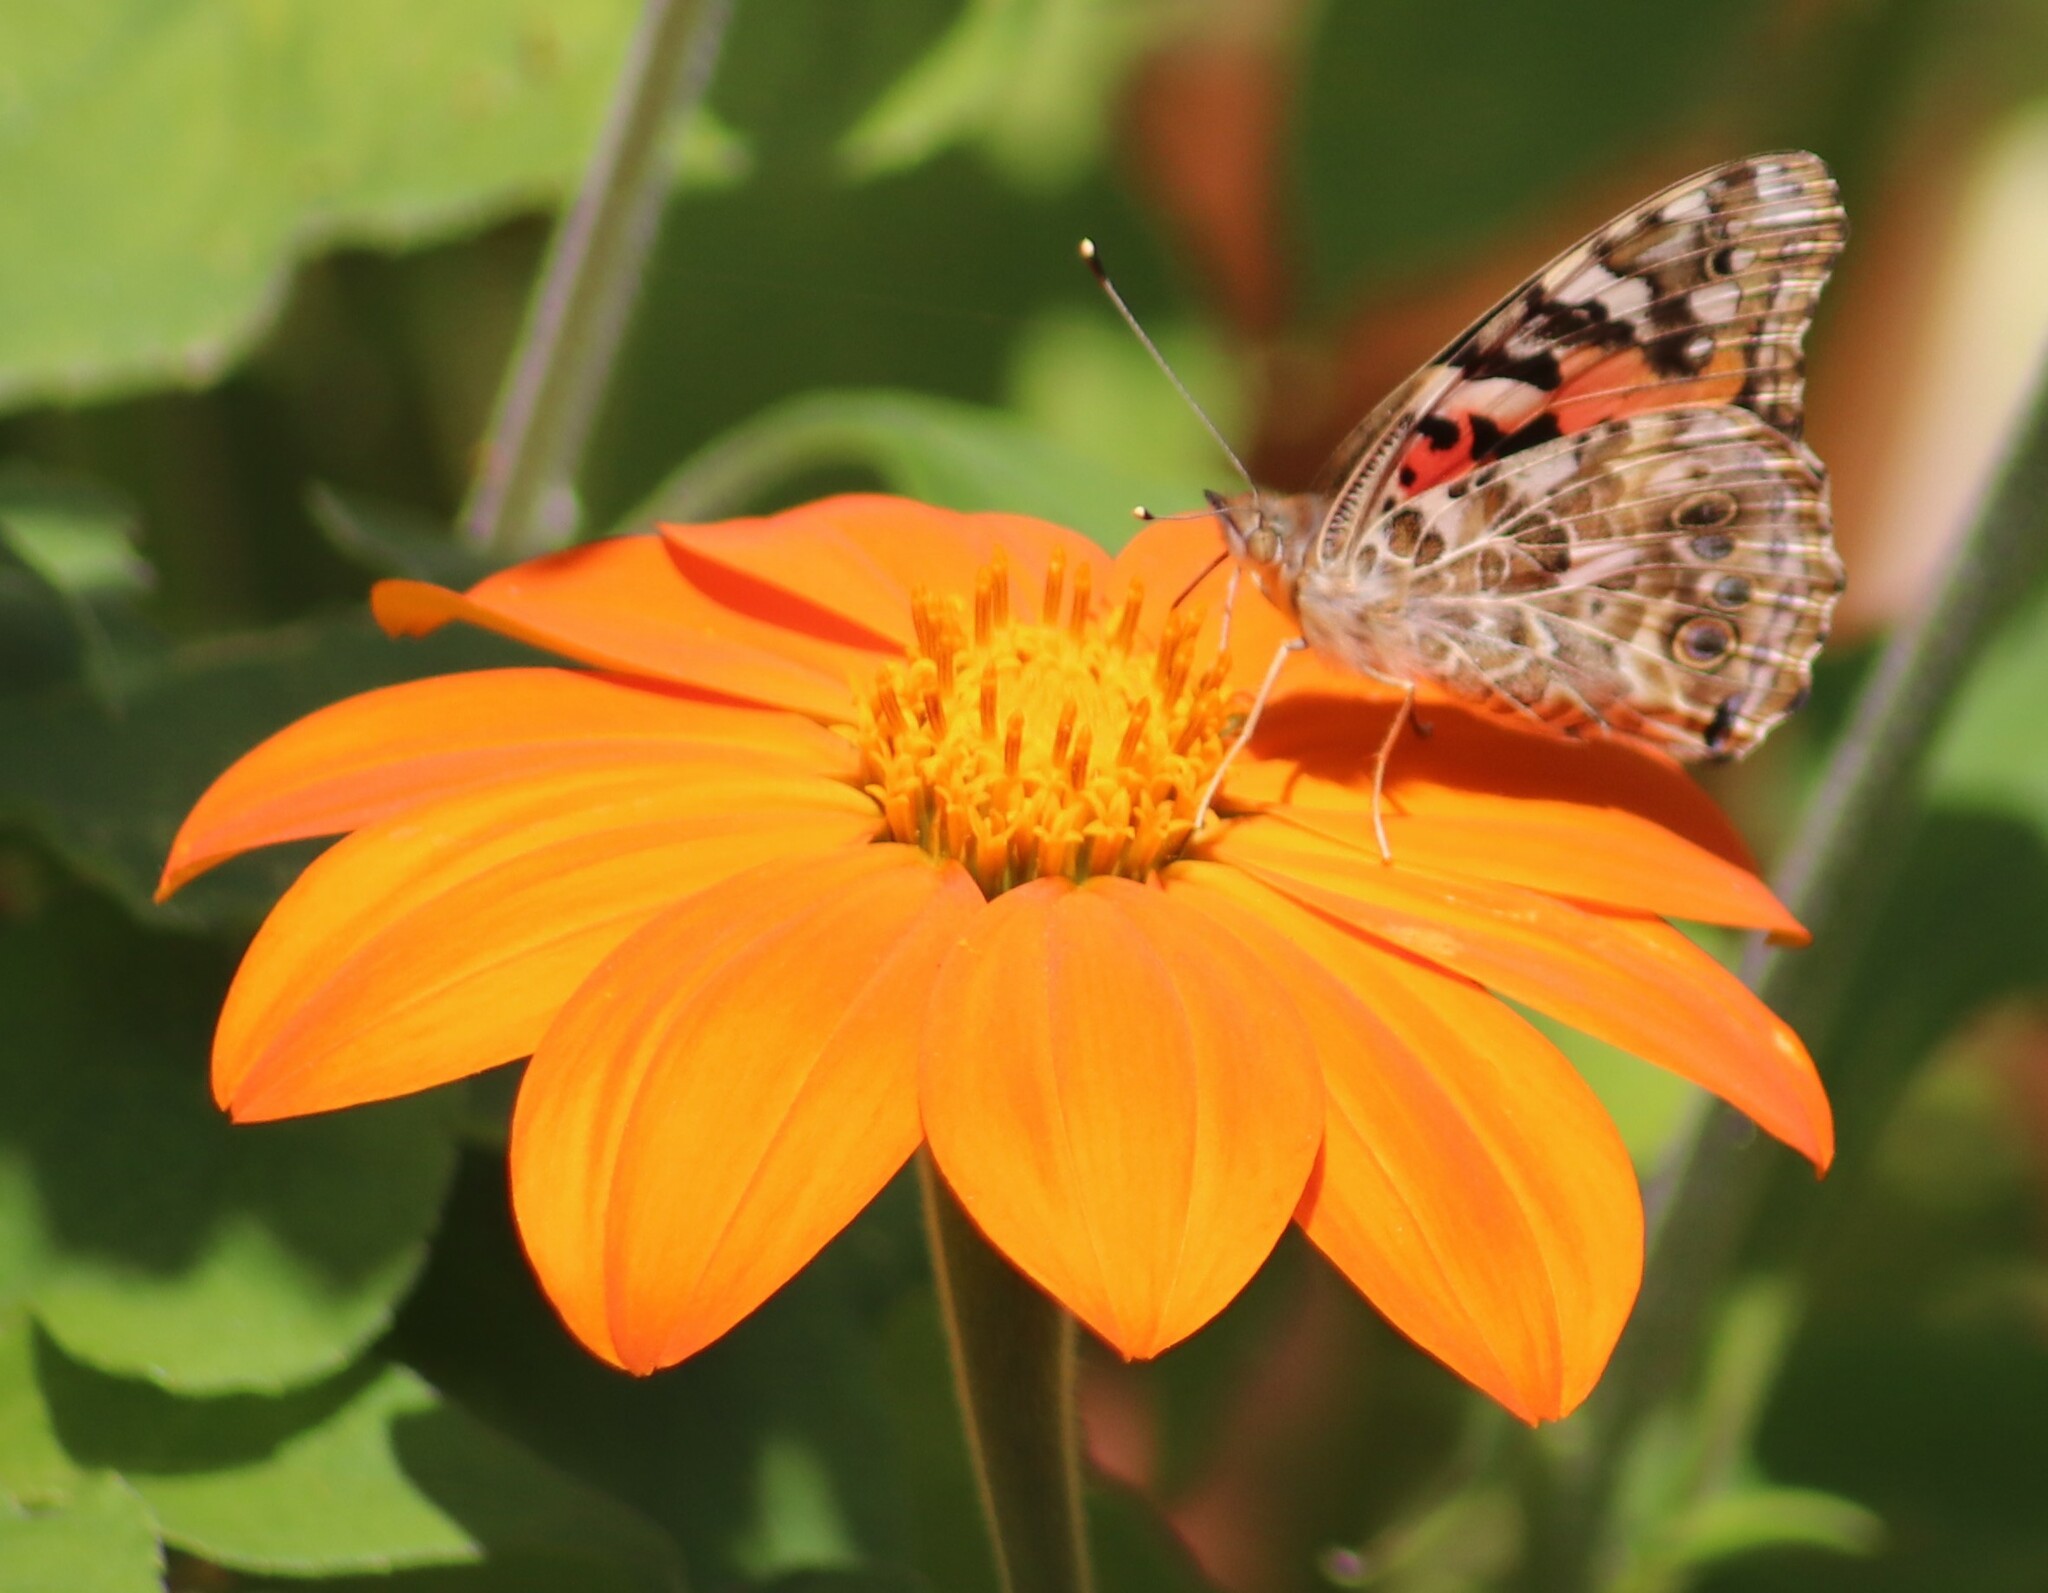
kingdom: Animalia
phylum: Arthropoda
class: Insecta
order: Lepidoptera
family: Nymphalidae
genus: Vanessa
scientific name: Vanessa cardui
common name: Painted lady
